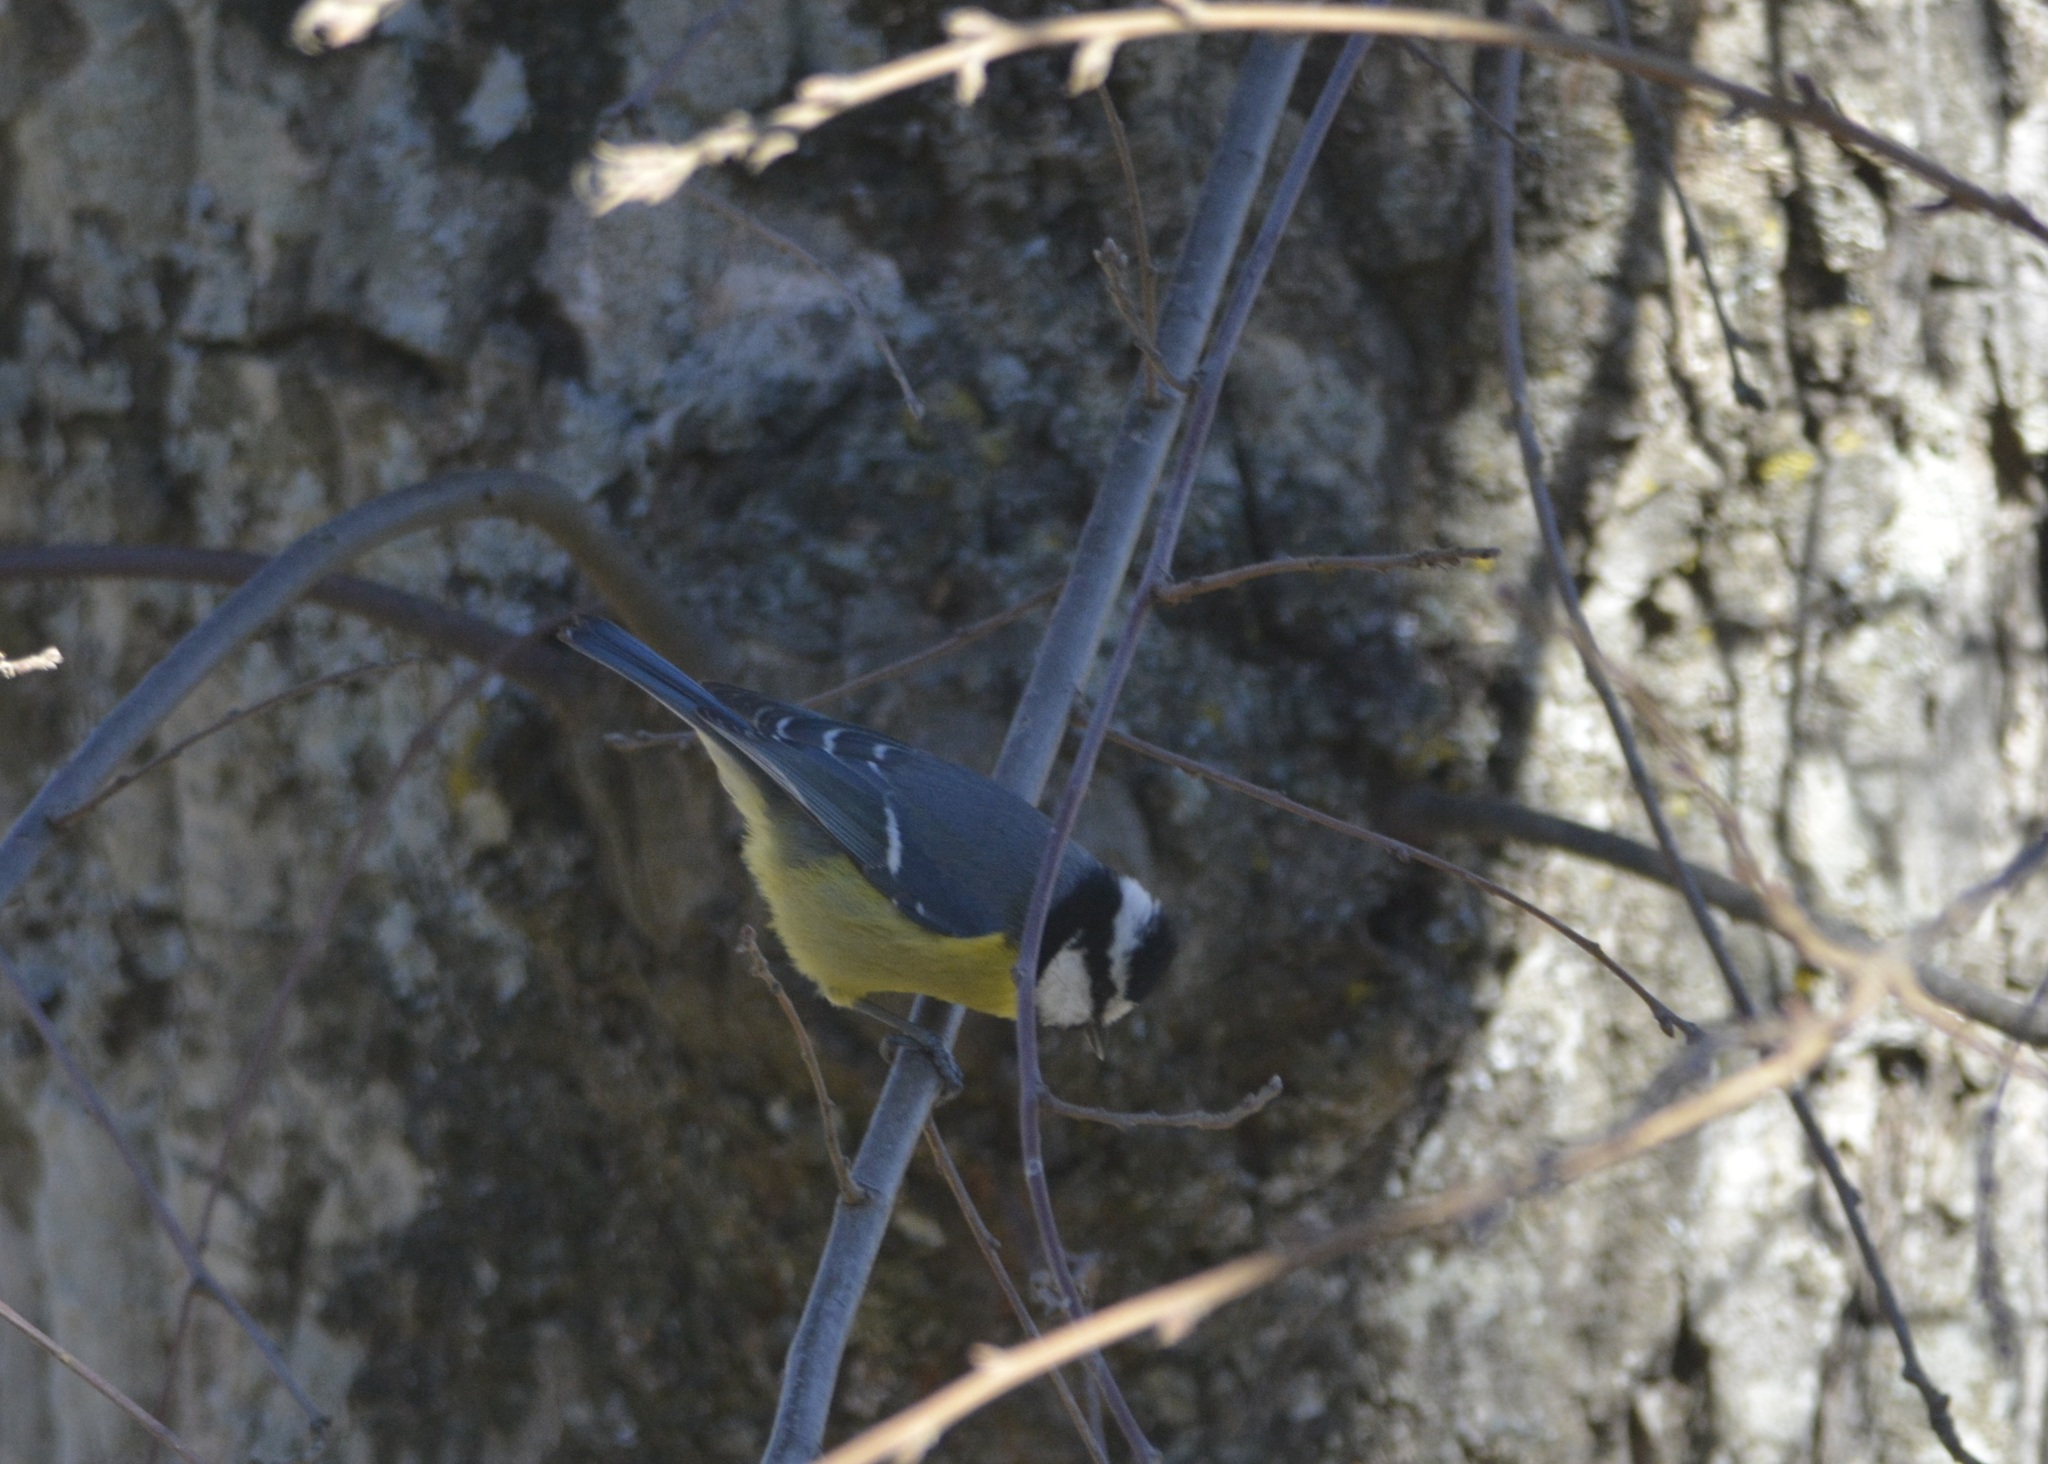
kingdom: Animalia
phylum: Chordata
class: Aves
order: Passeriformes
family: Paridae
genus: Cyanistes
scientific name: Cyanistes teneriffae
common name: African blue tit
